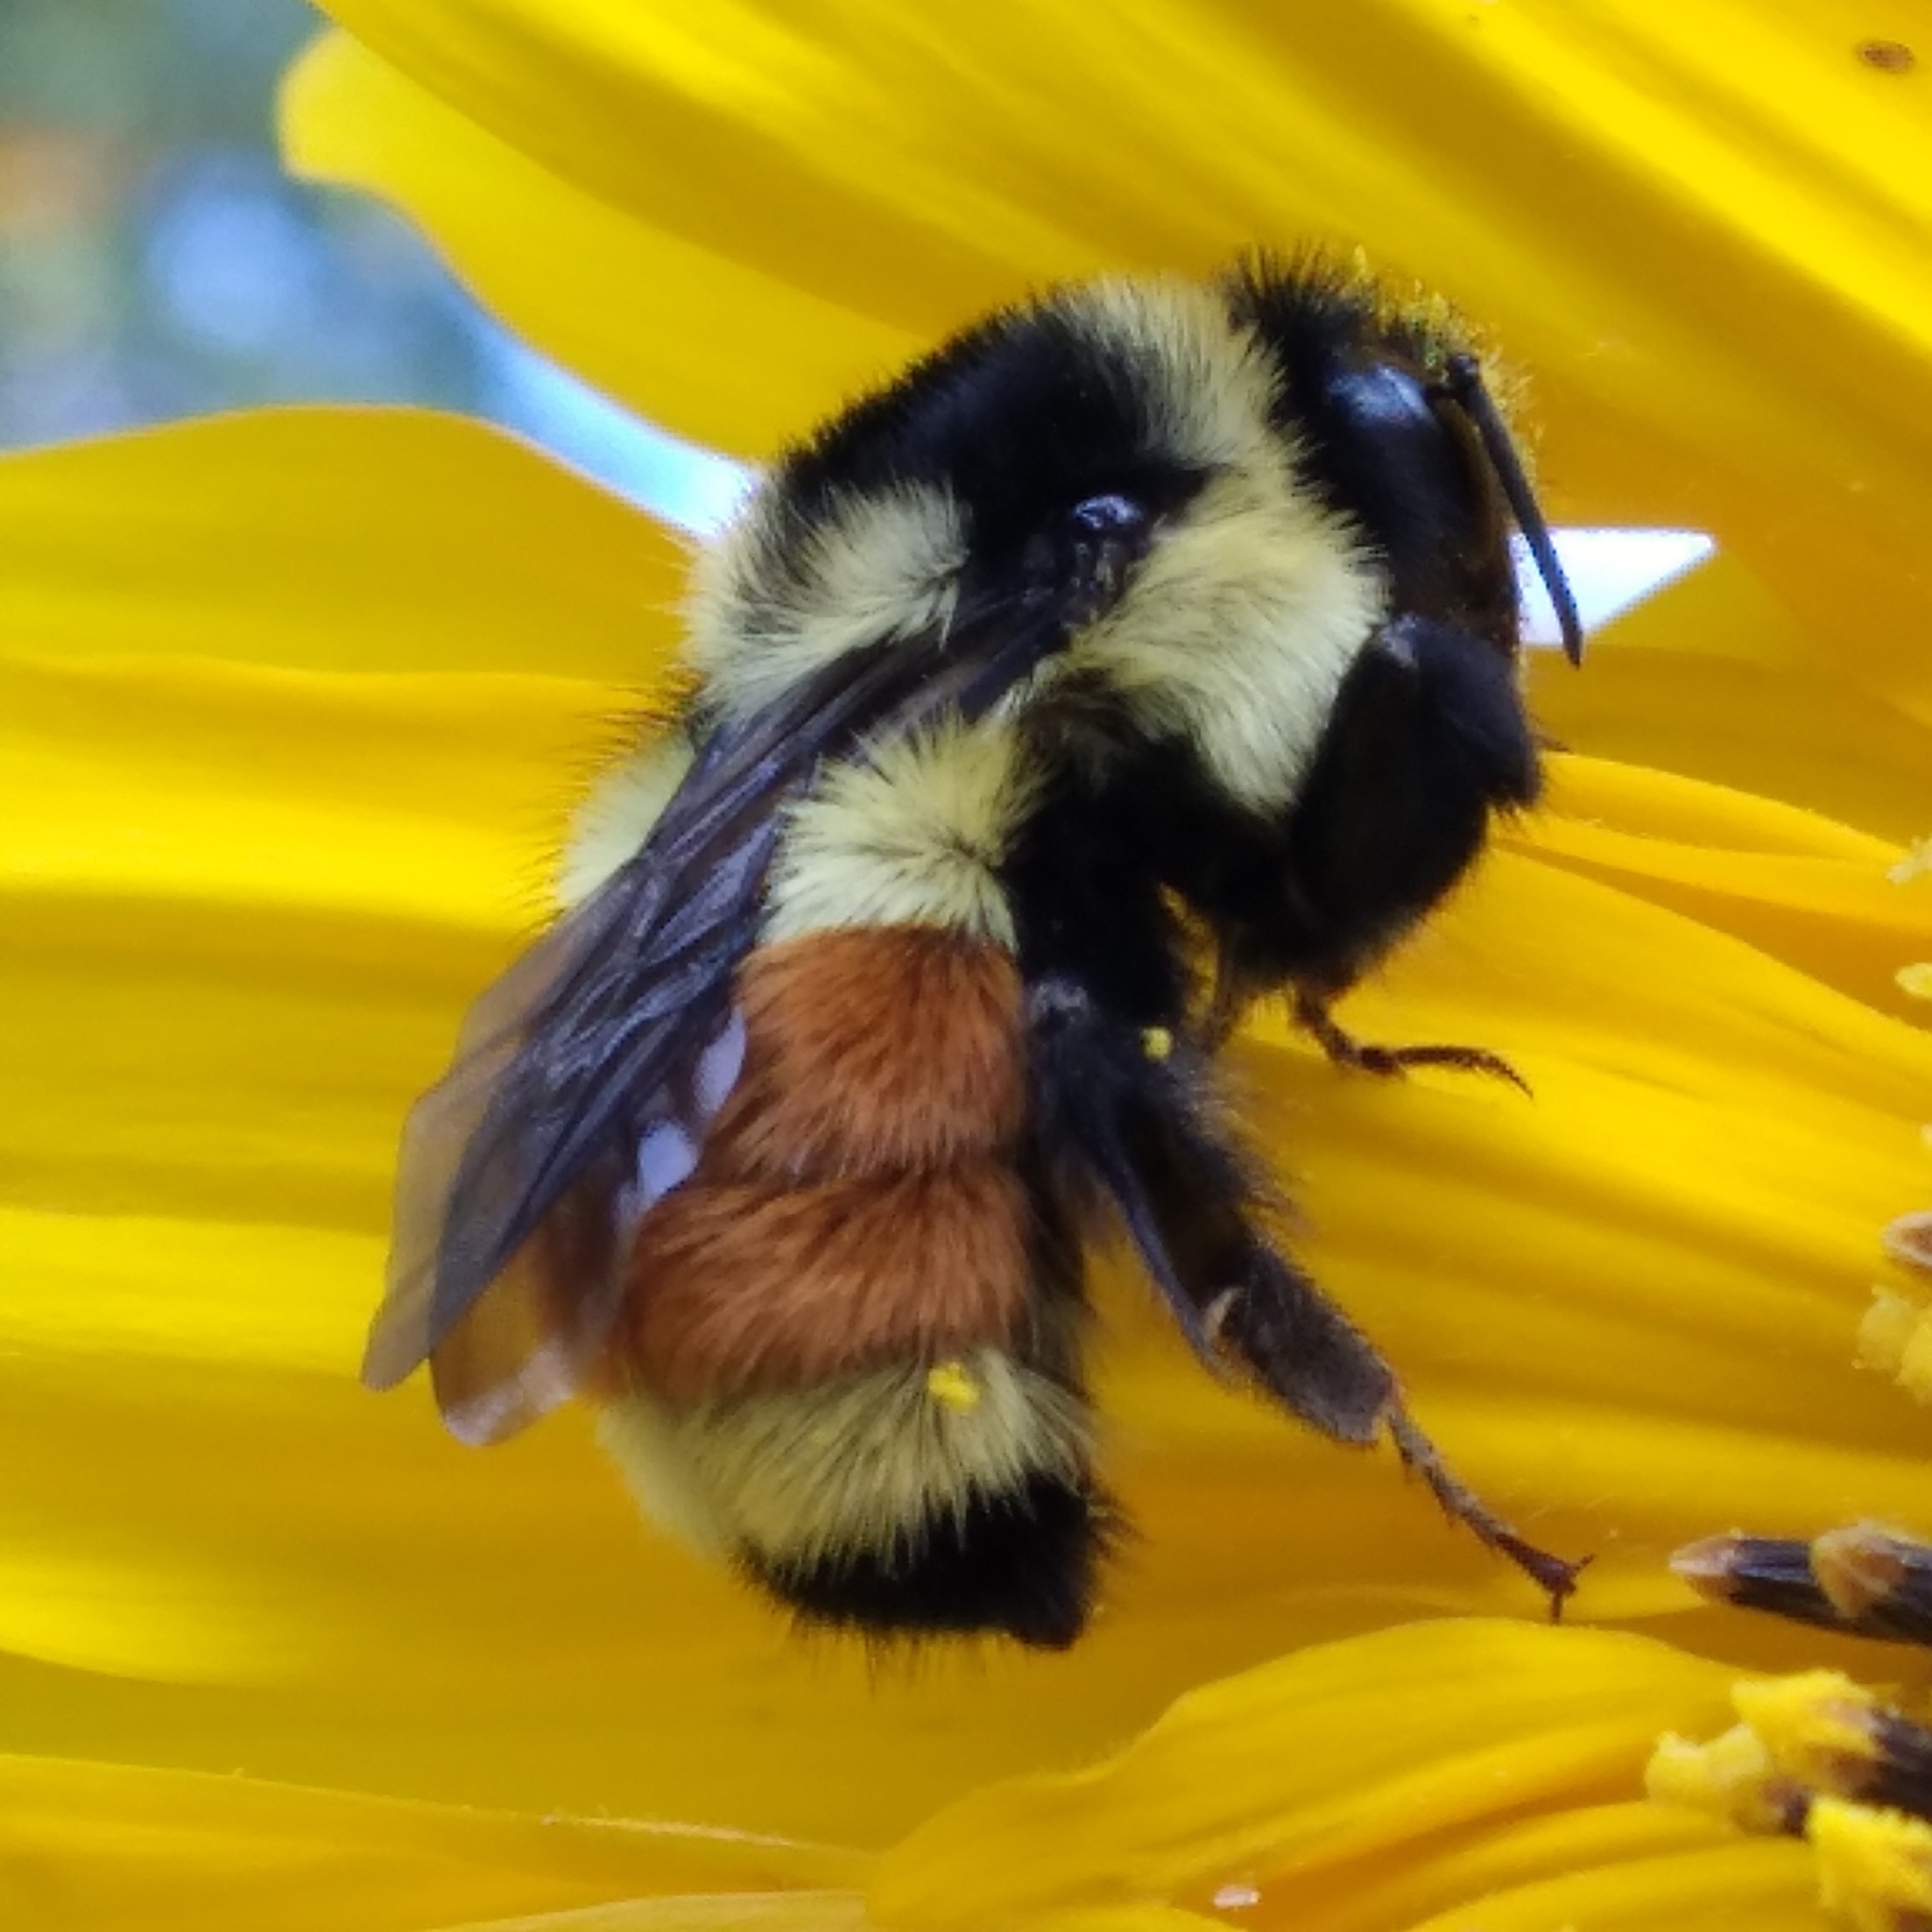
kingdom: Animalia
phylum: Arthropoda
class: Insecta
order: Hymenoptera
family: Apidae
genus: Bombus
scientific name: Bombus ternarius
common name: Tri-colored bumble bee
